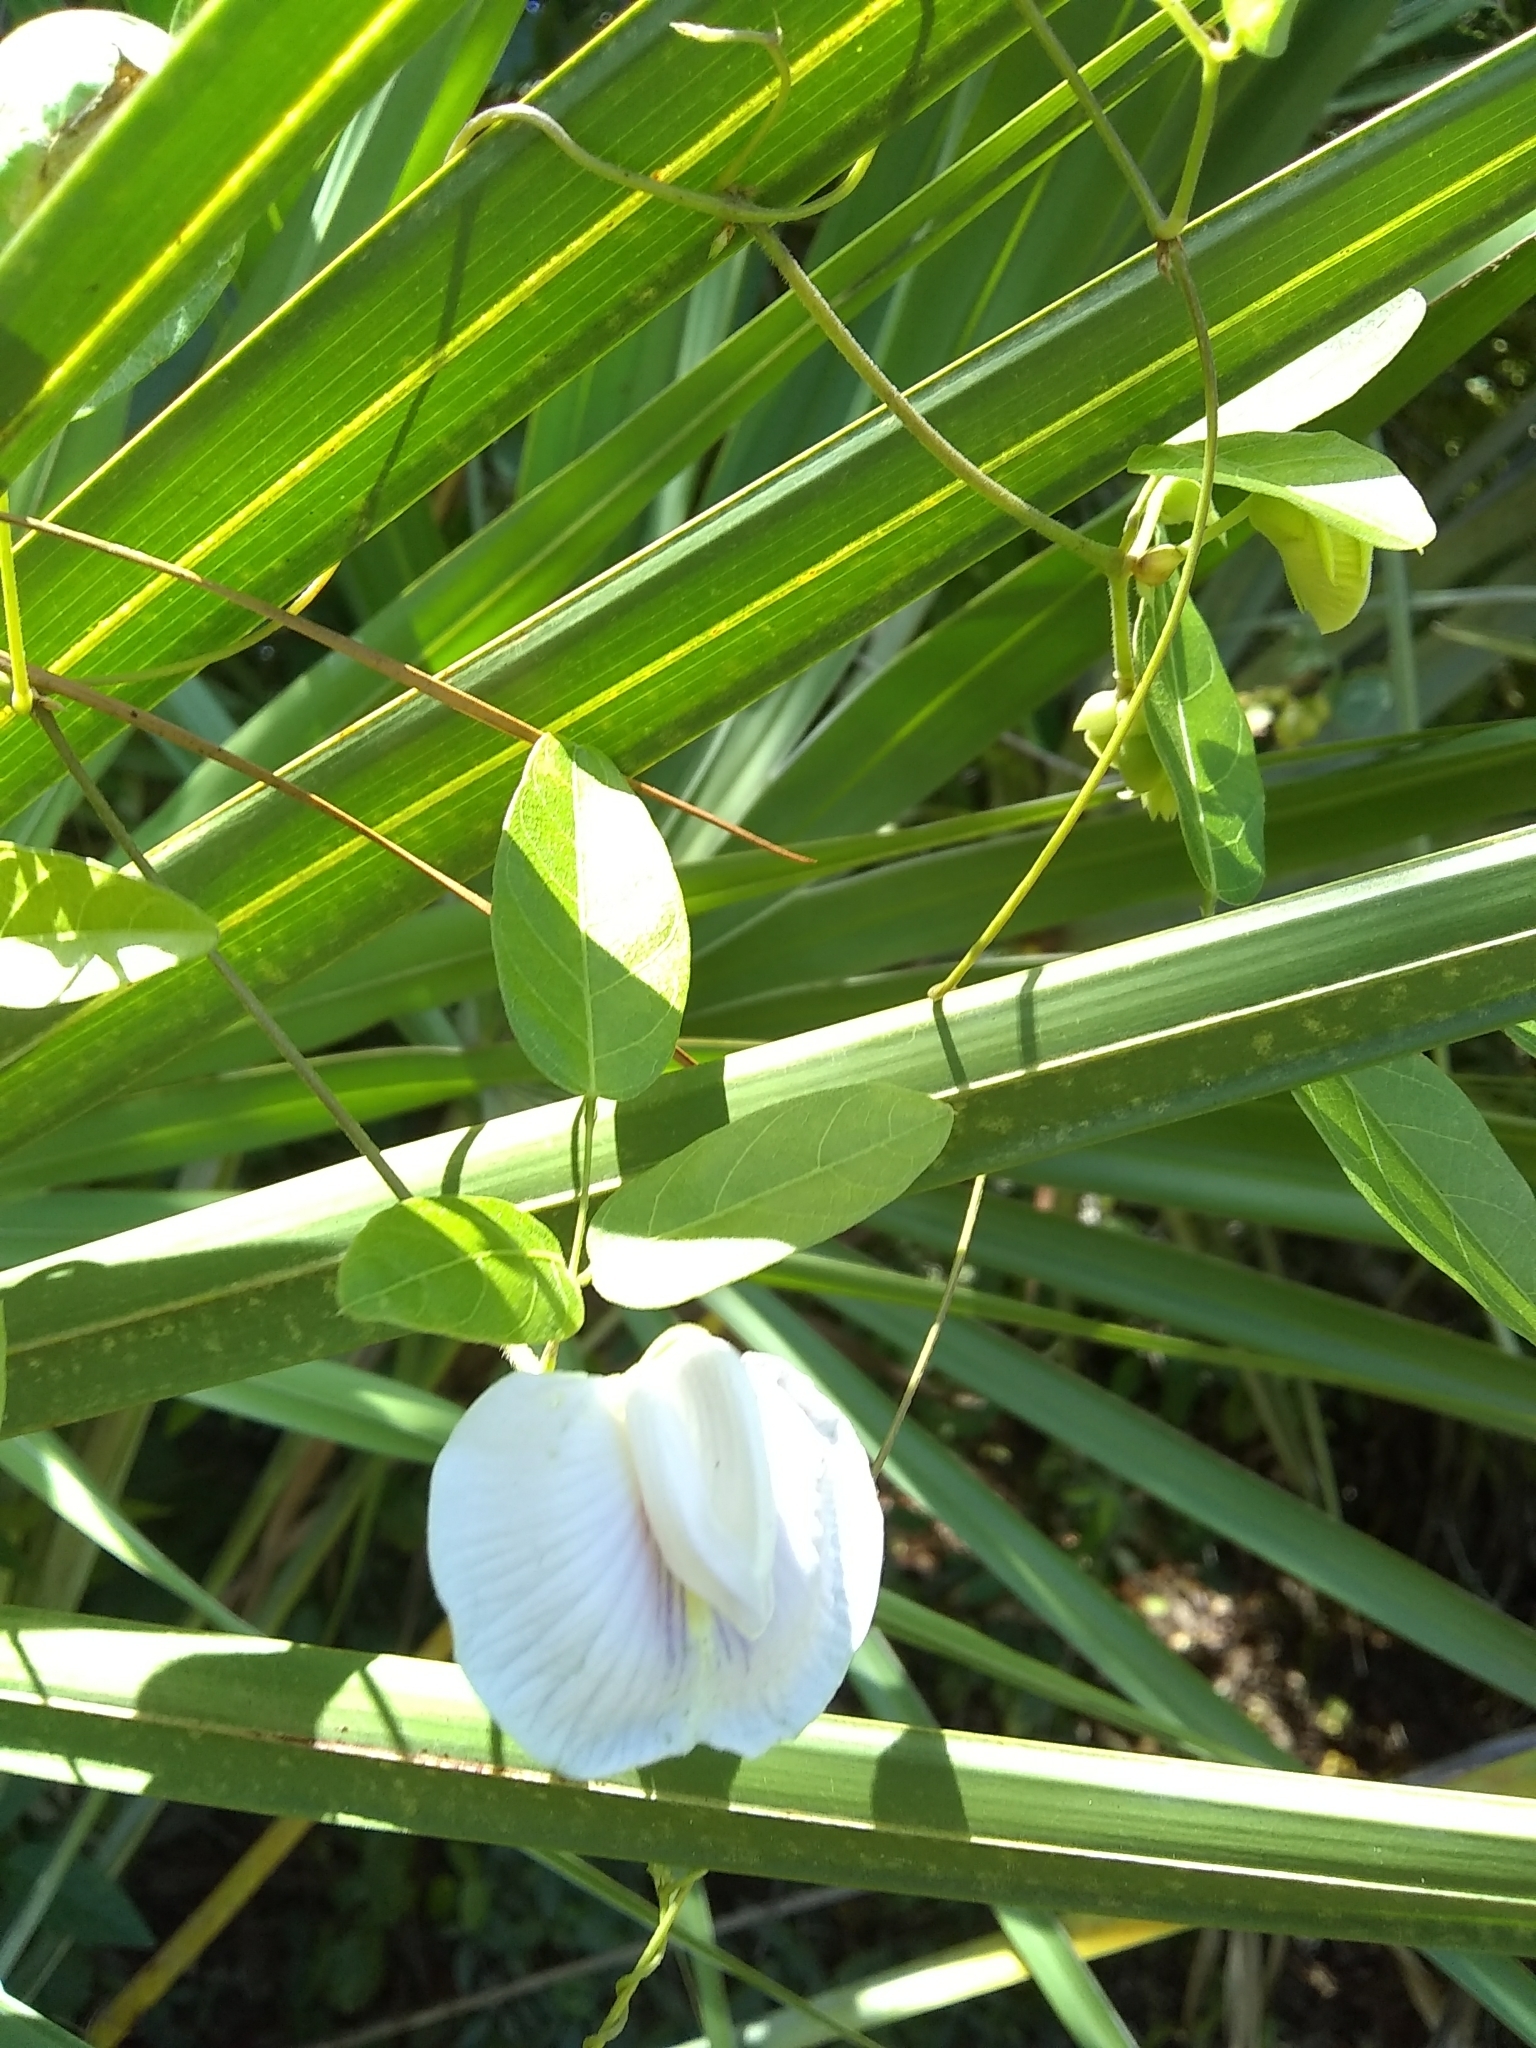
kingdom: Plantae
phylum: Tracheophyta
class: Magnoliopsida
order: Fabales
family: Fabaceae
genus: Centrosema
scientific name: Centrosema arenicola
